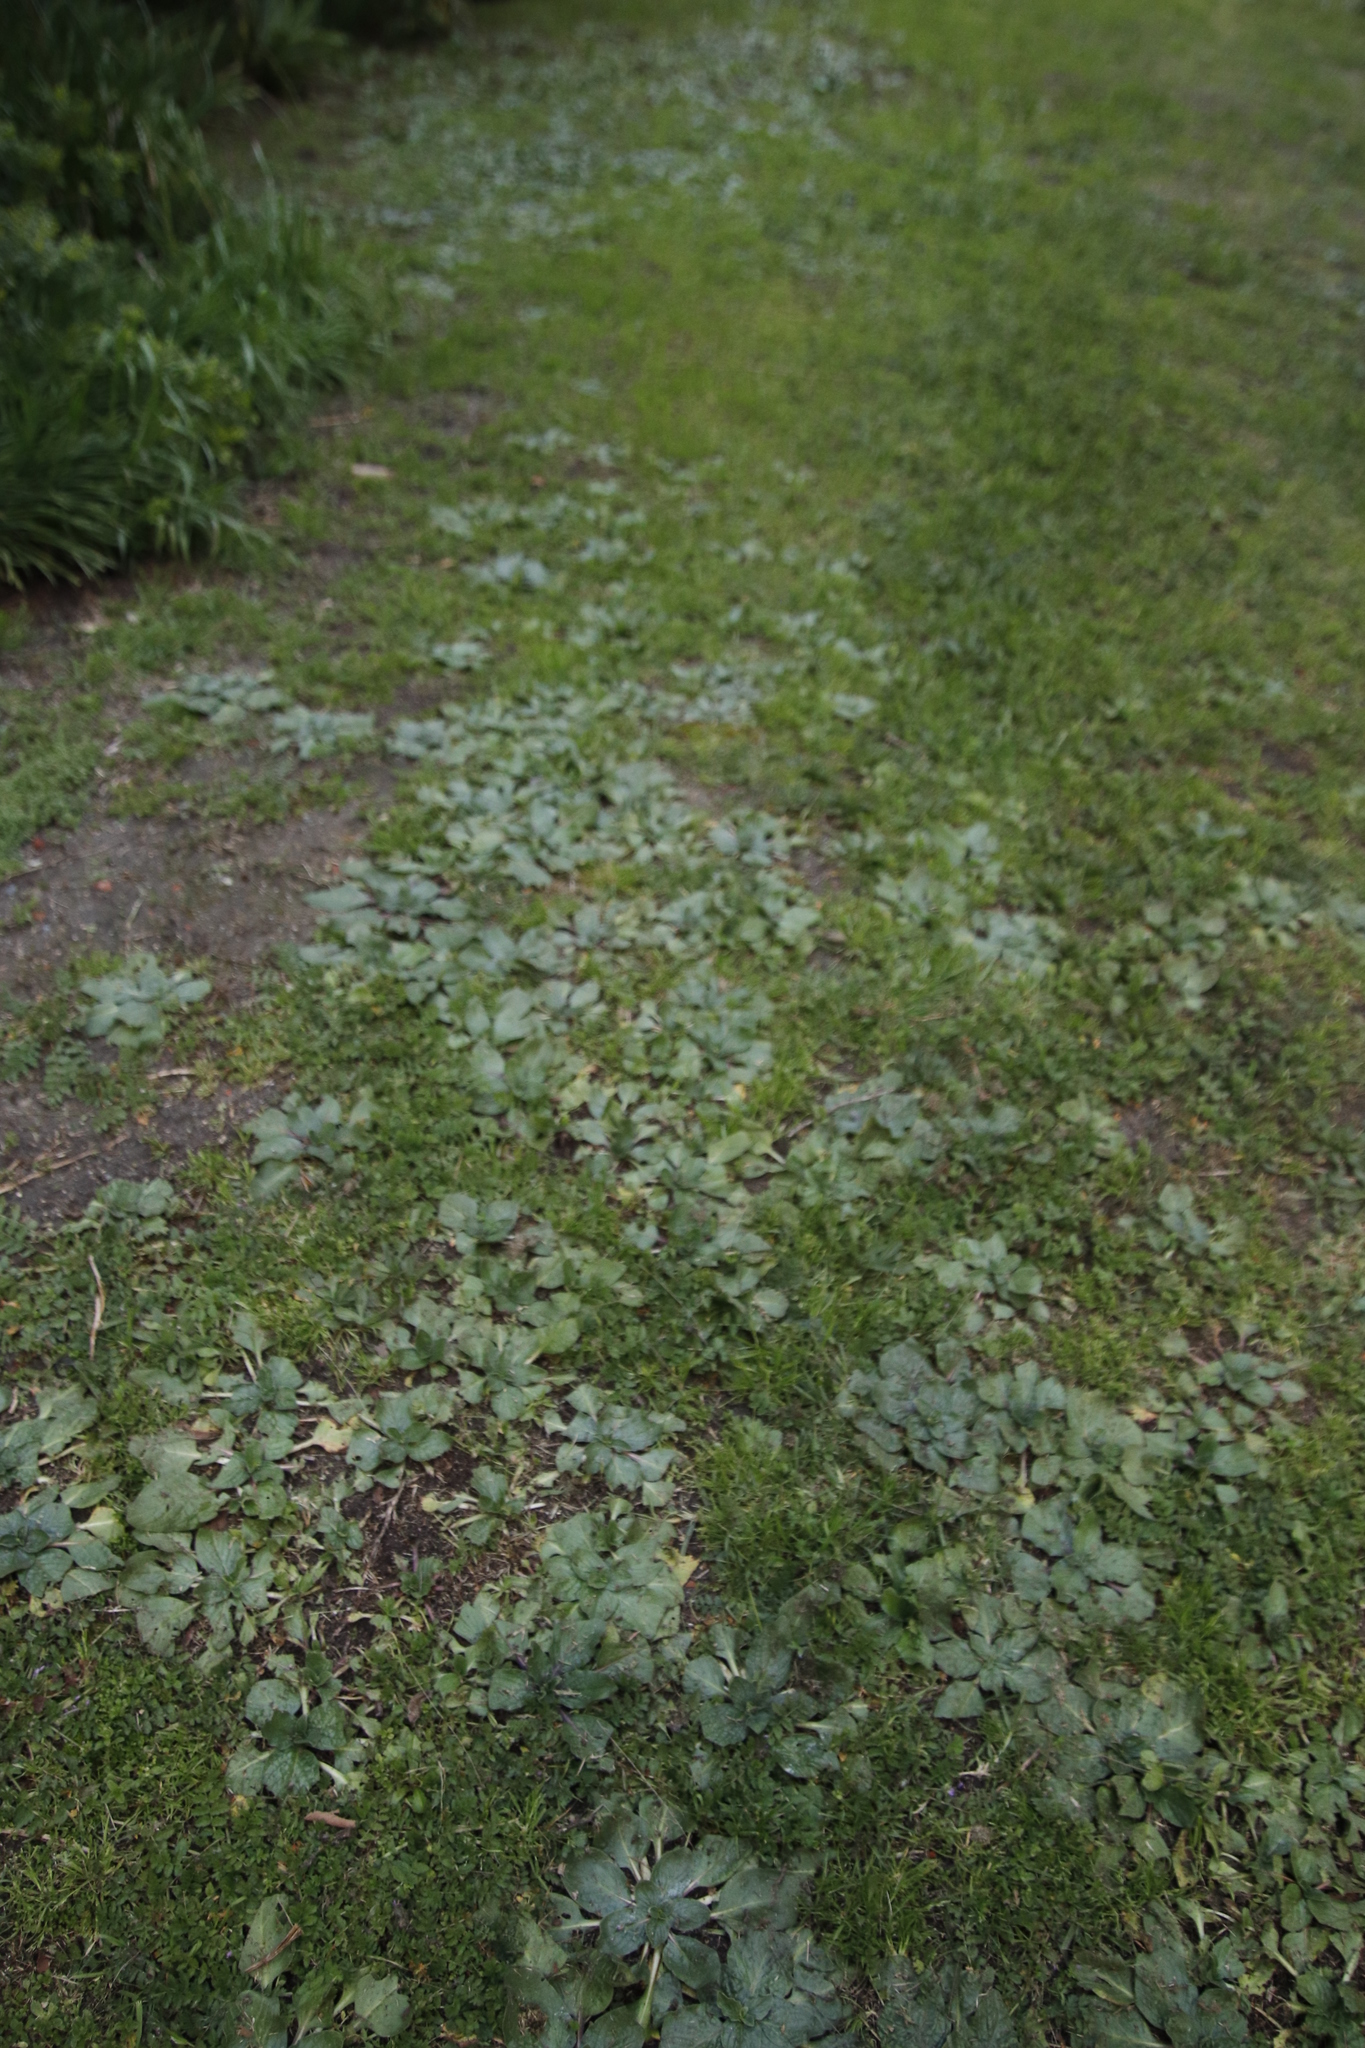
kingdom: Plantae
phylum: Tracheophyta
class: Magnoliopsida
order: Boraginales
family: Boraginaceae
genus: Echium
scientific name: Echium plantagineum
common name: Purple viper's-bugloss
